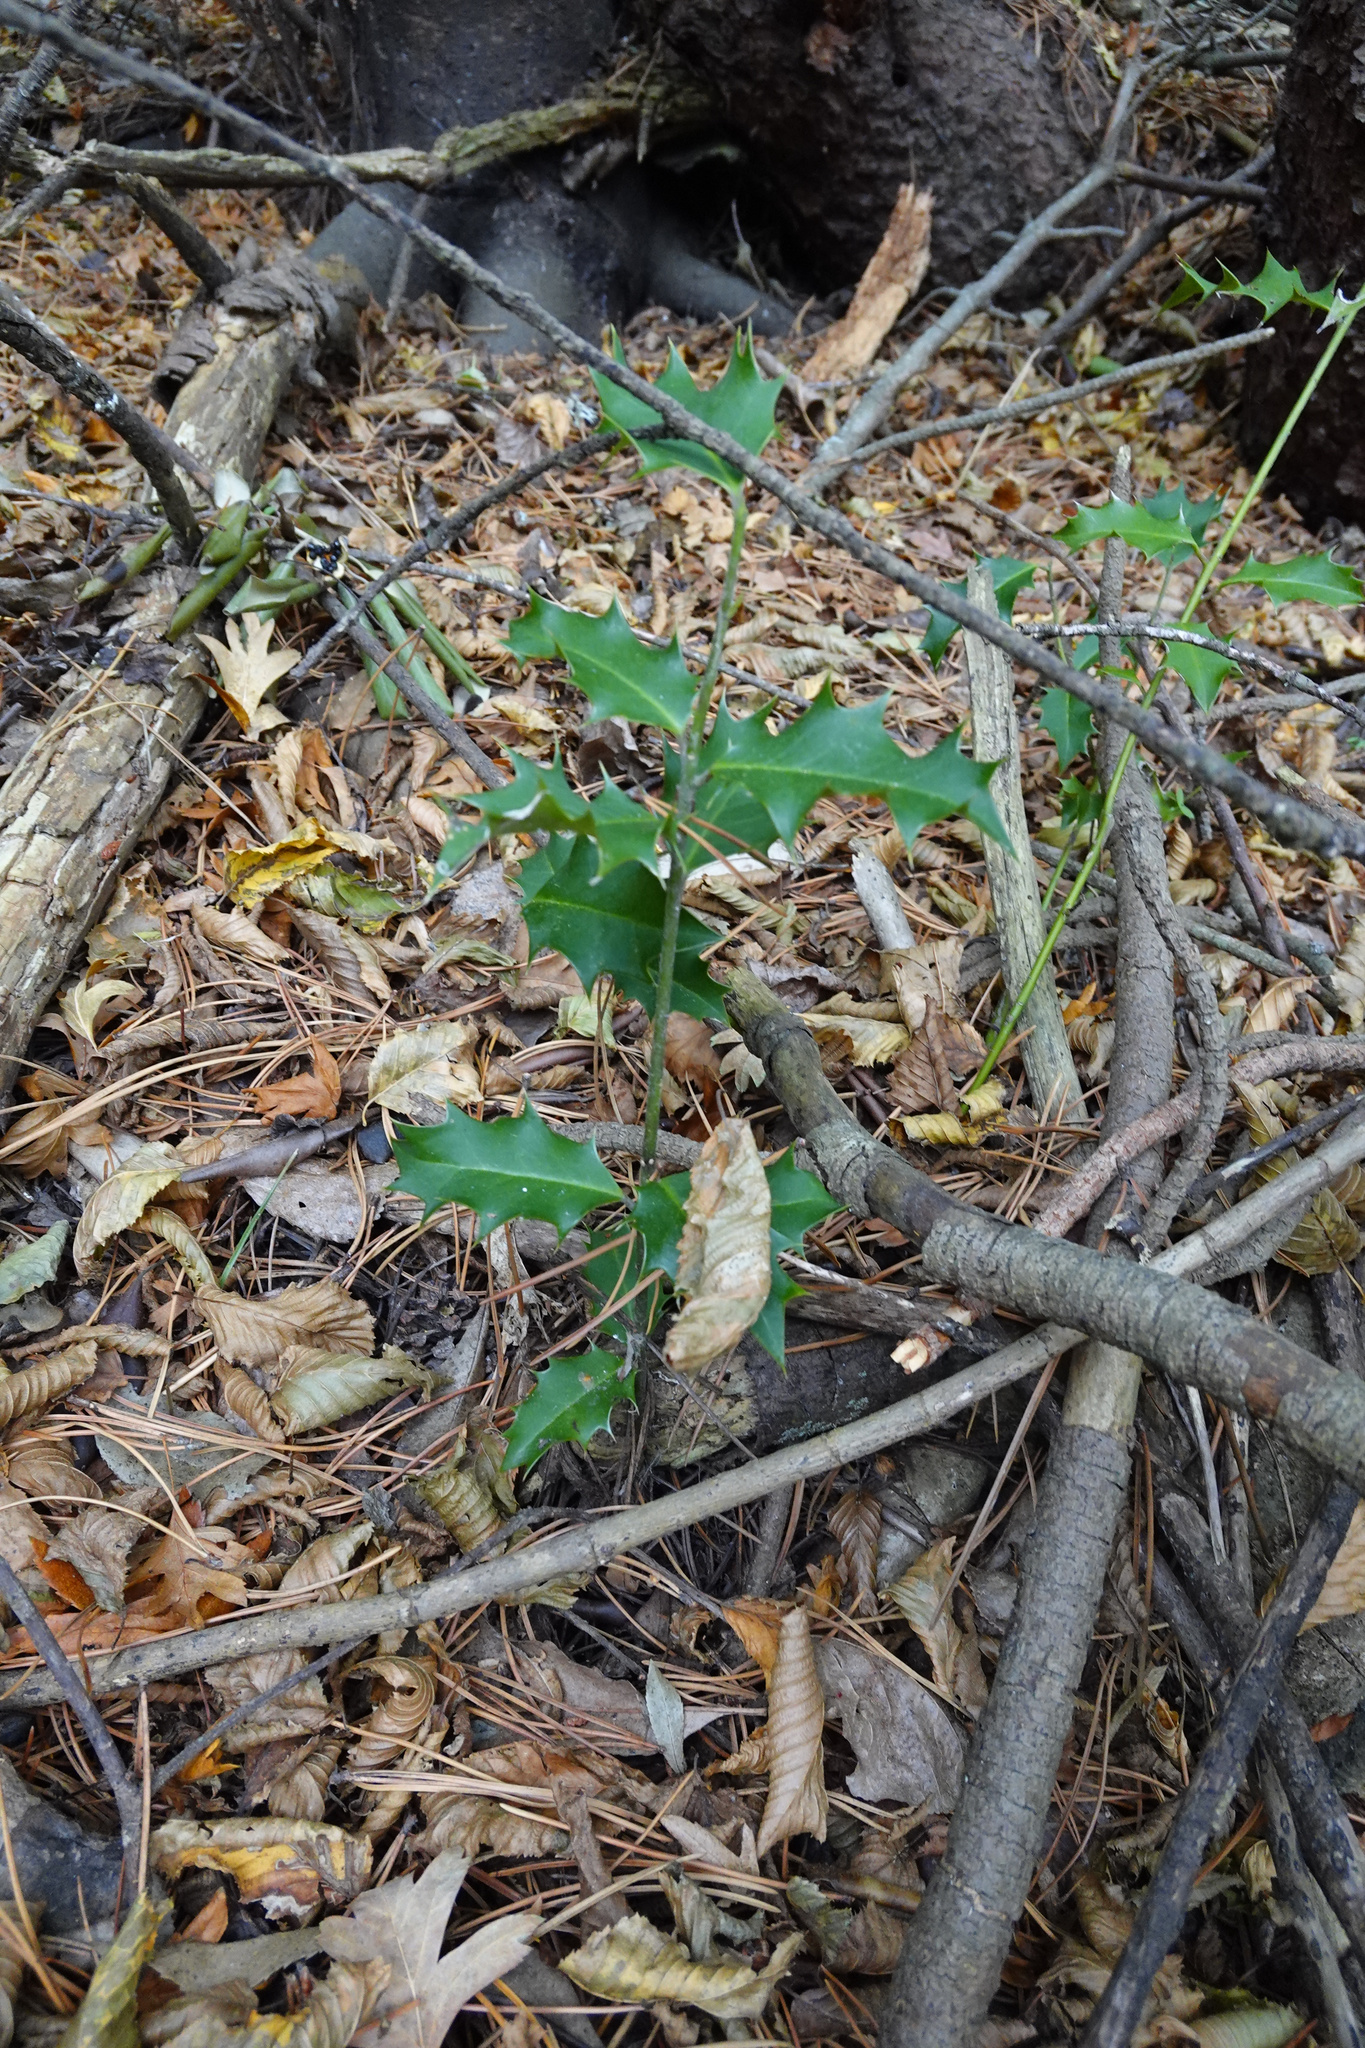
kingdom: Plantae
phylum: Tracheophyta
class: Magnoliopsida
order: Aquifoliales
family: Aquifoliaceae
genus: Ilex
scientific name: Ilex aquifolium
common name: English holly
